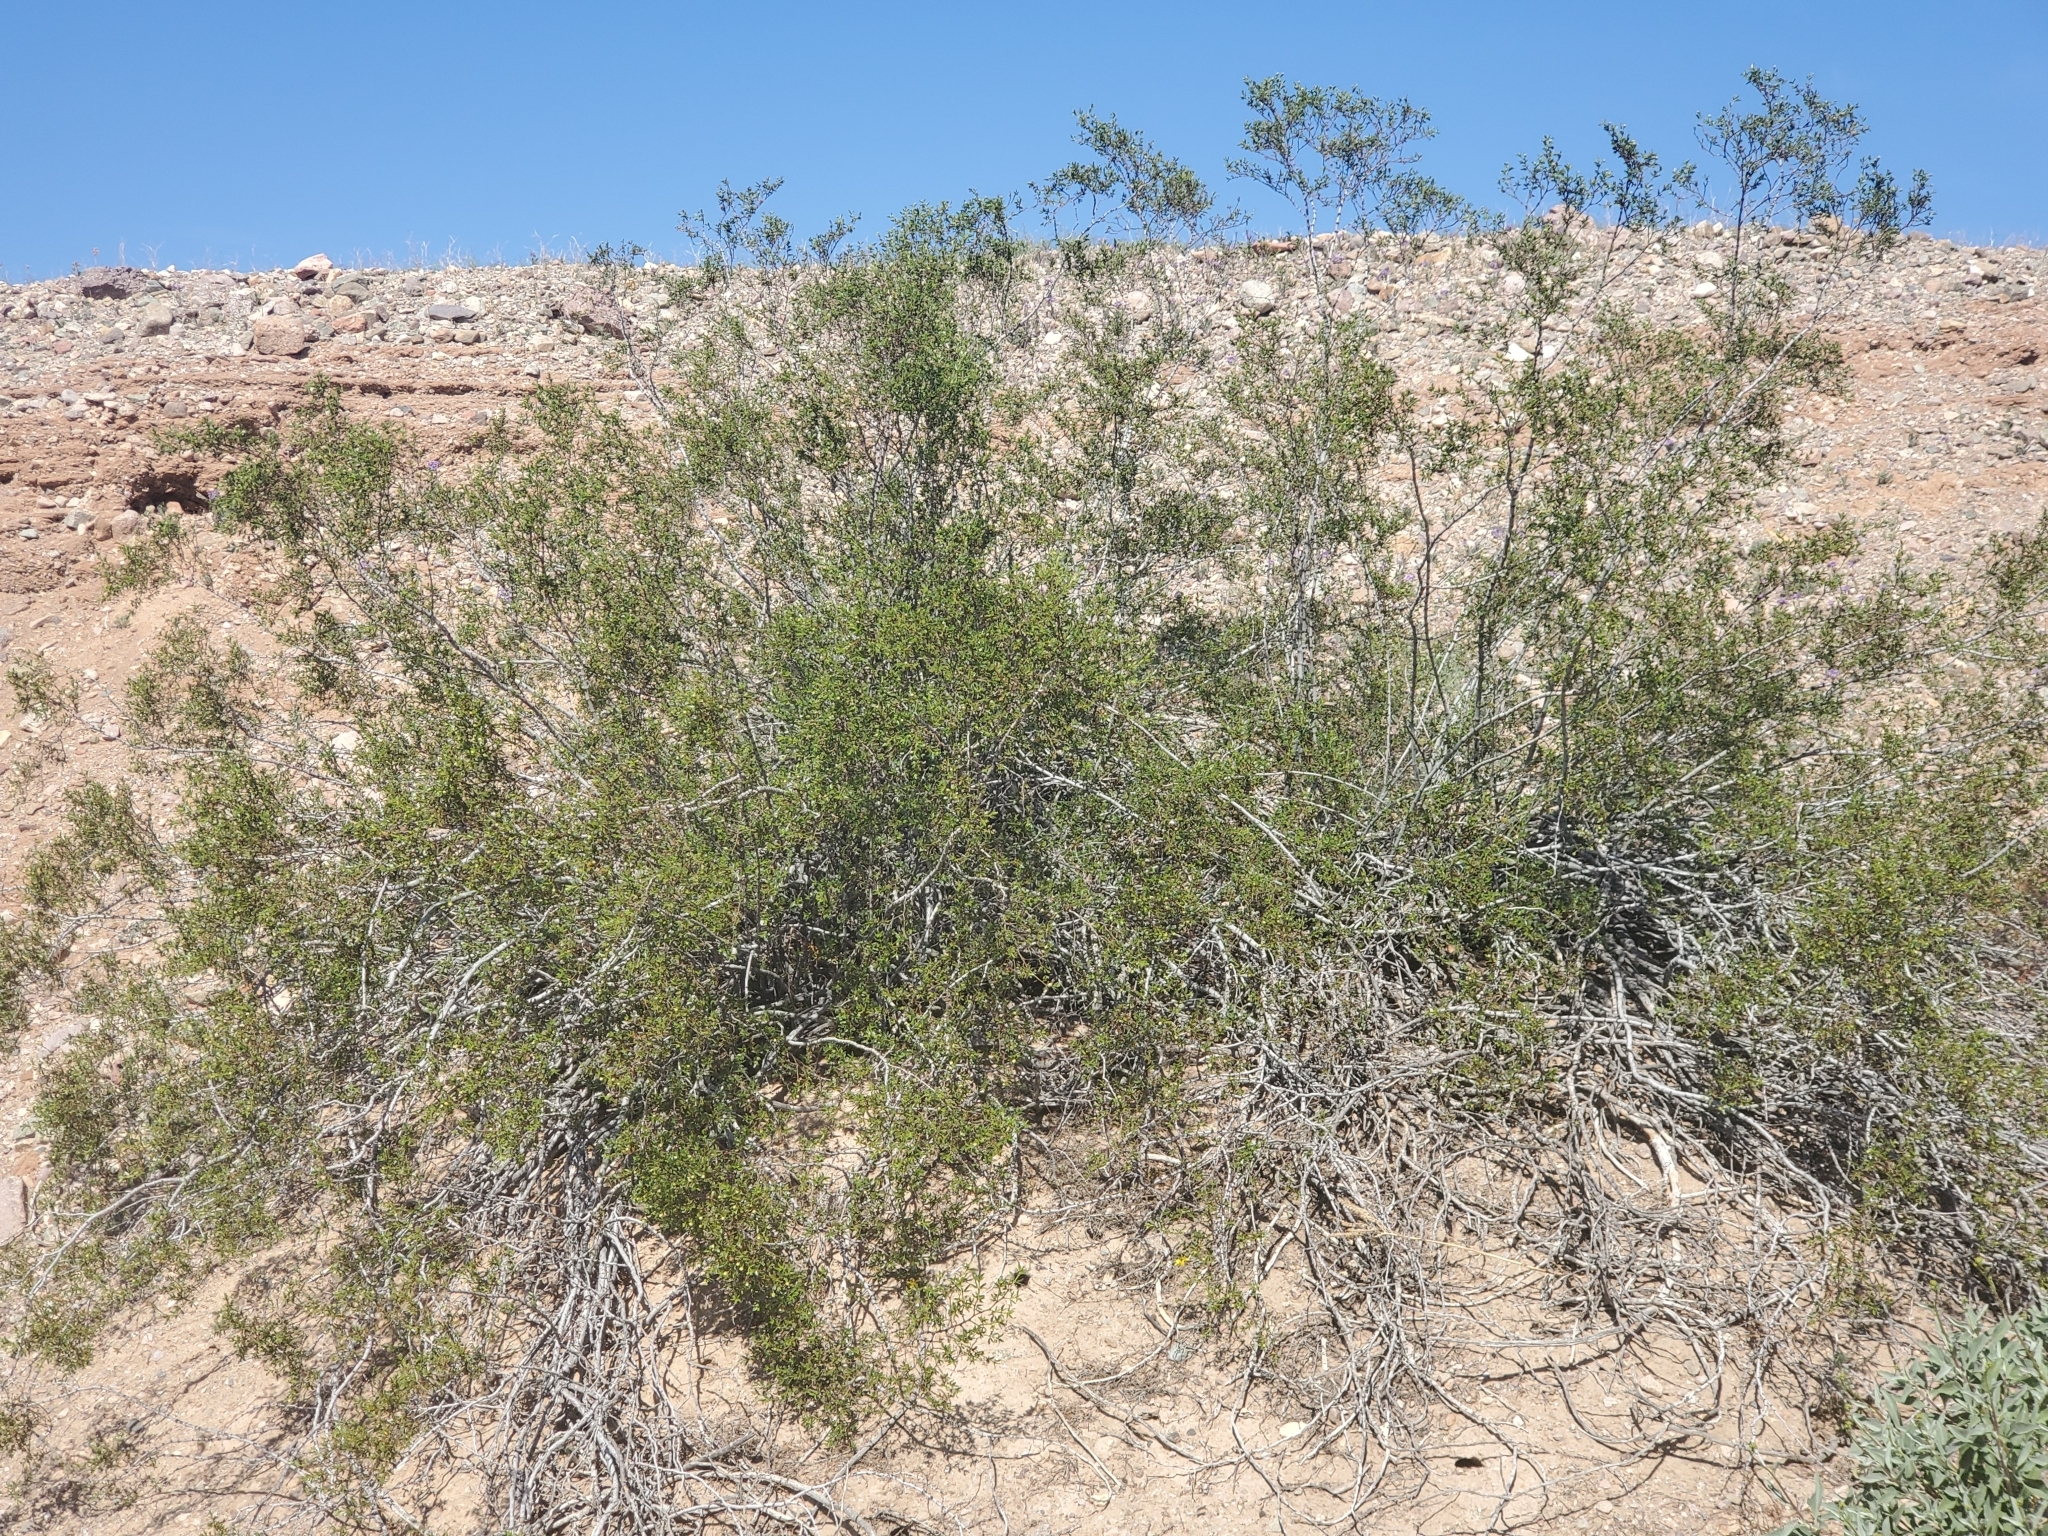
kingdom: Plantae
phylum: Tracheophyta
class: Magnoliopsida
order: Zygophyllales
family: Zygophyllaceae
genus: Larrea
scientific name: Larrea tridentata
